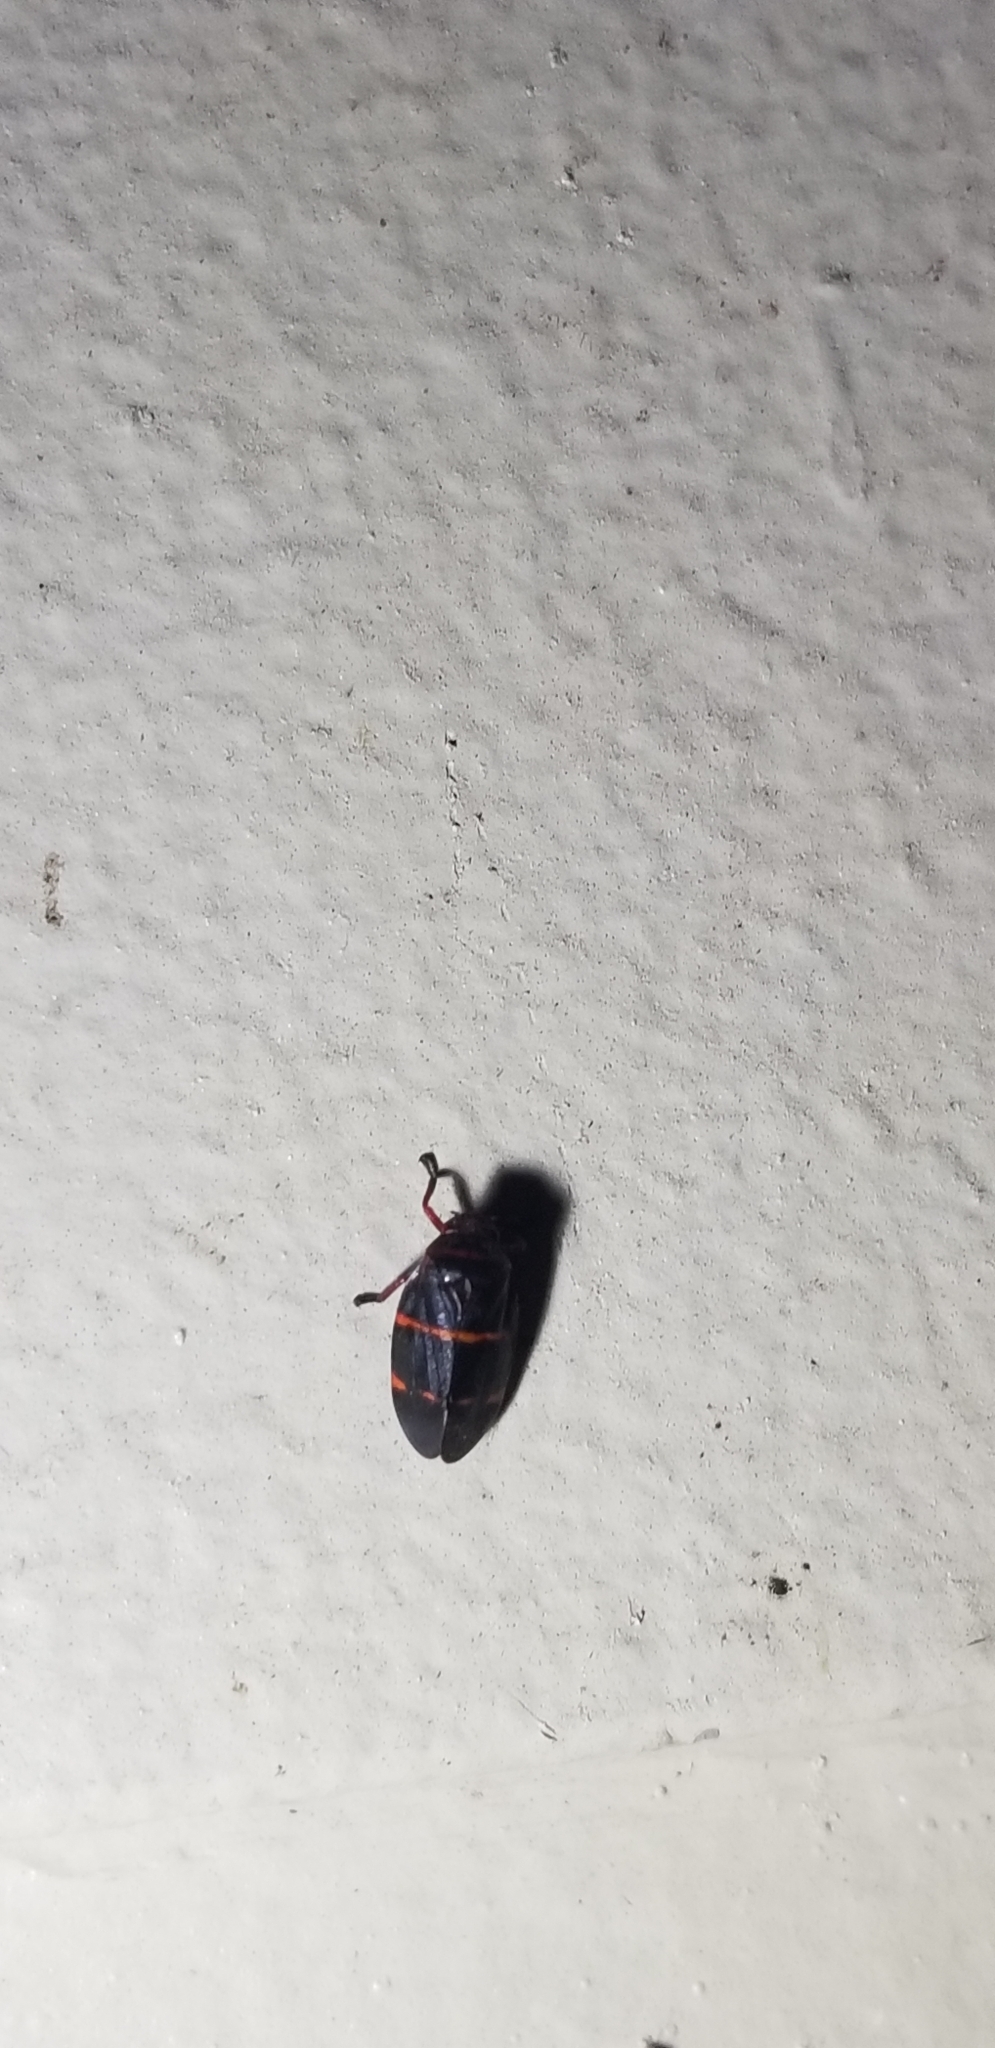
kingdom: Animalia
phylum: Arthropoda
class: Insecta
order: Hemiptera
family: Cercopidae
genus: Prosapia
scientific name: Prosapia bicincta
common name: Twolined spittlebug
